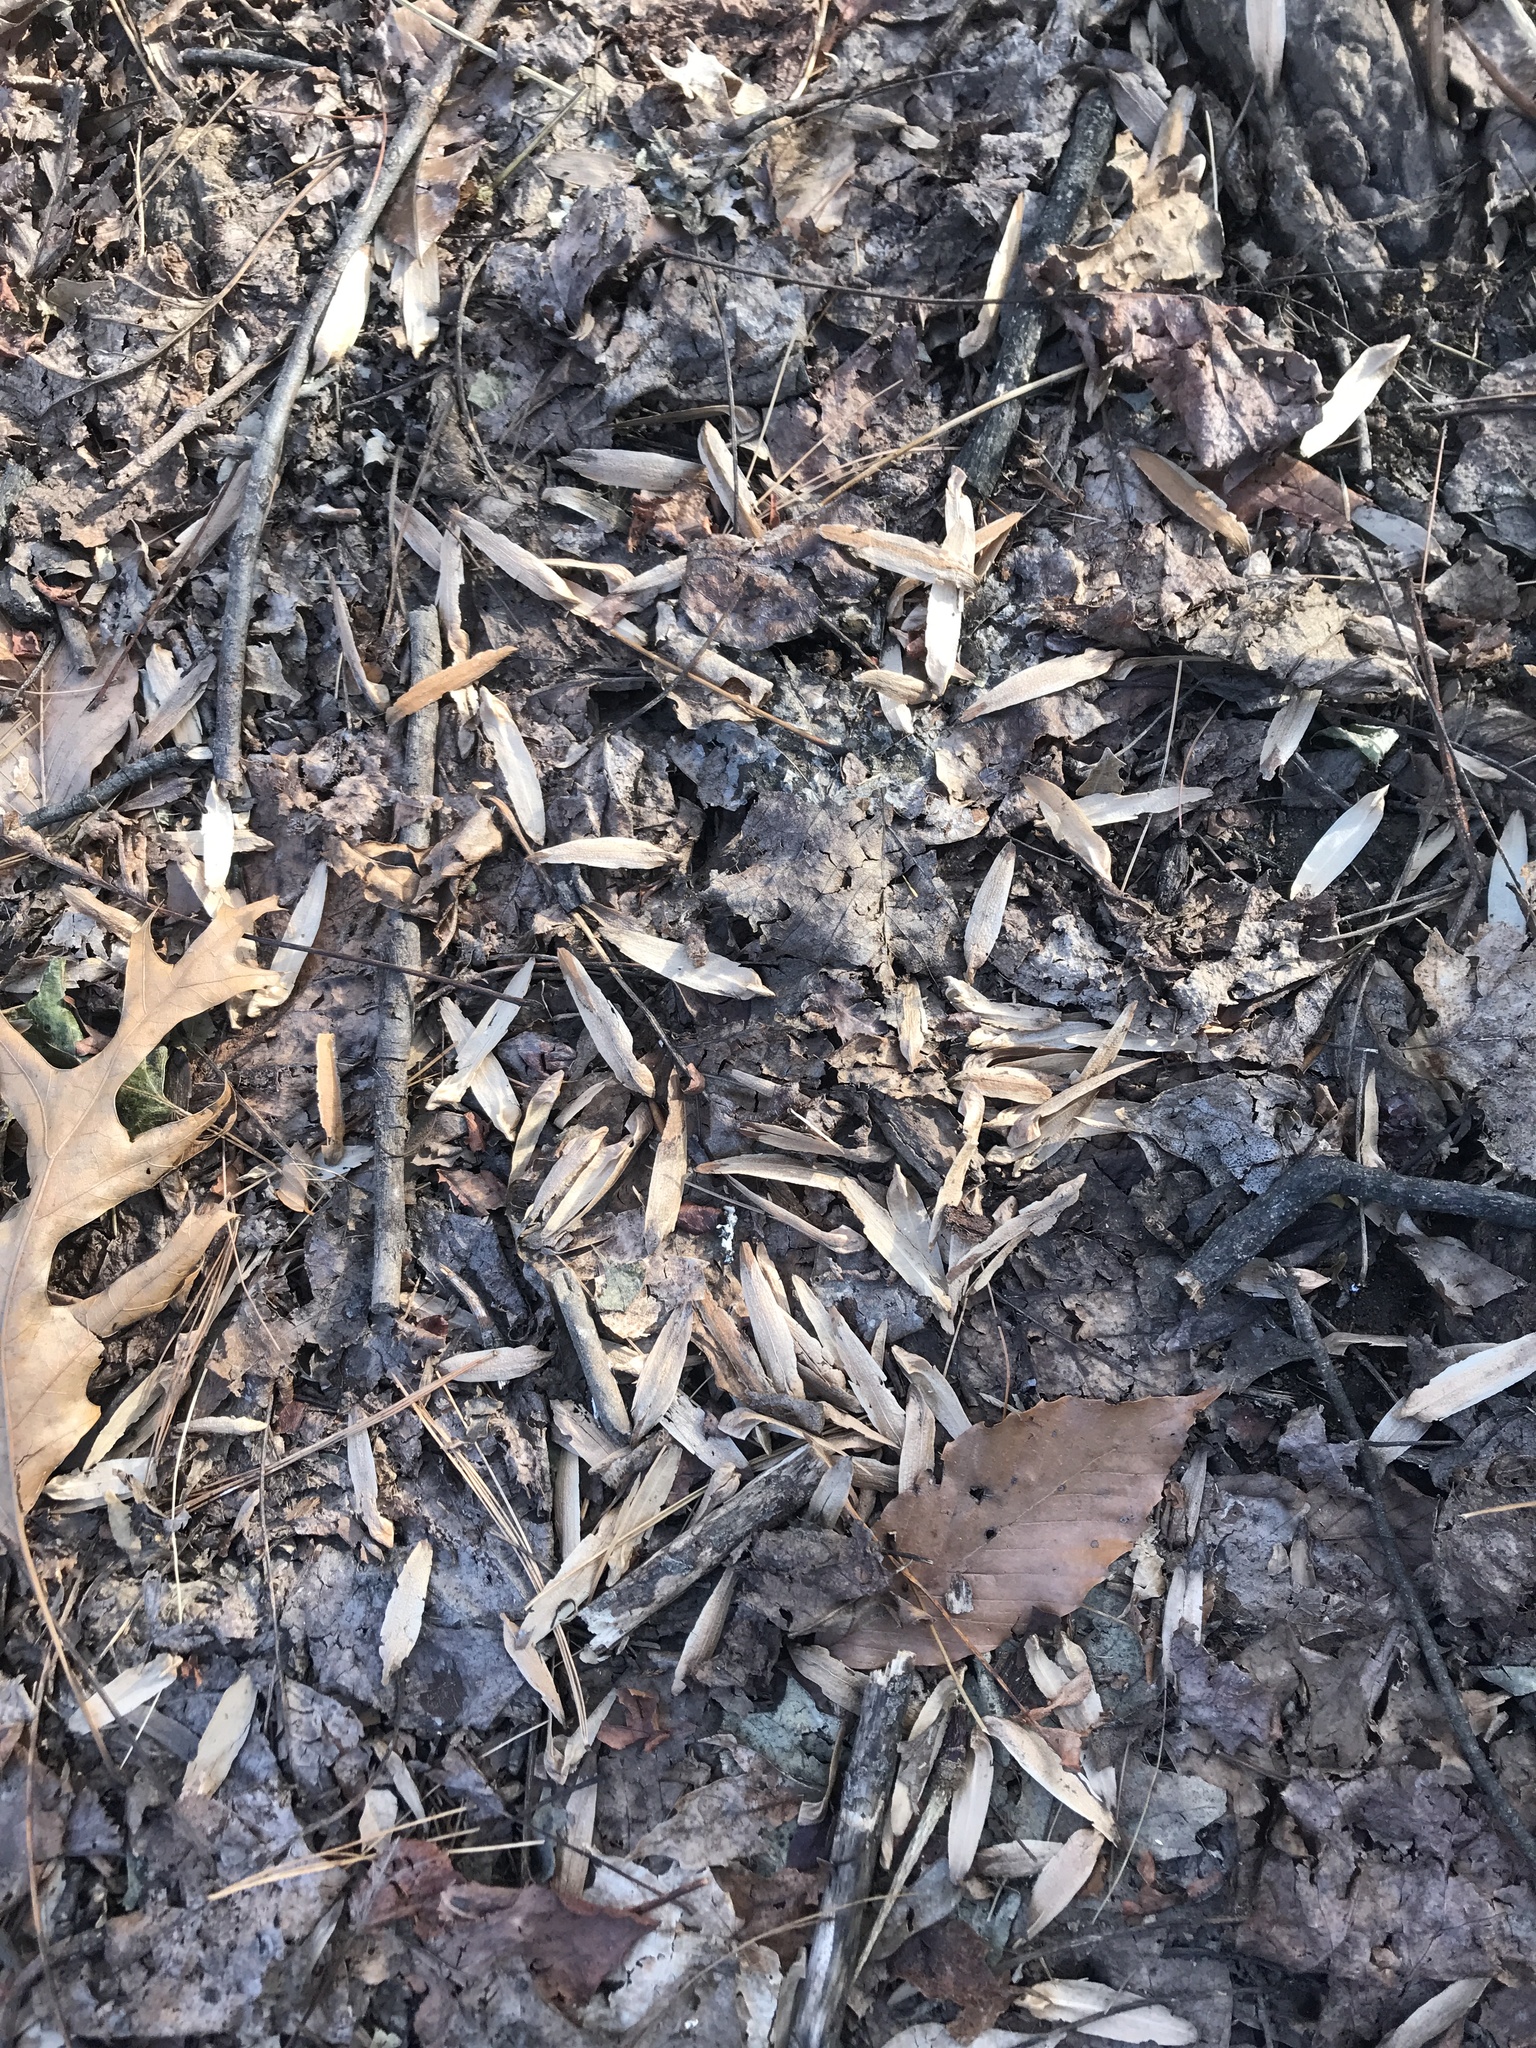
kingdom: Plantae
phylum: Tracheophyta
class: Magnoliopsida
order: Magnoliales
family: Magnoliaceae
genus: Liriodendron
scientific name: Liriodendron tulipifera
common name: Tulip tree
